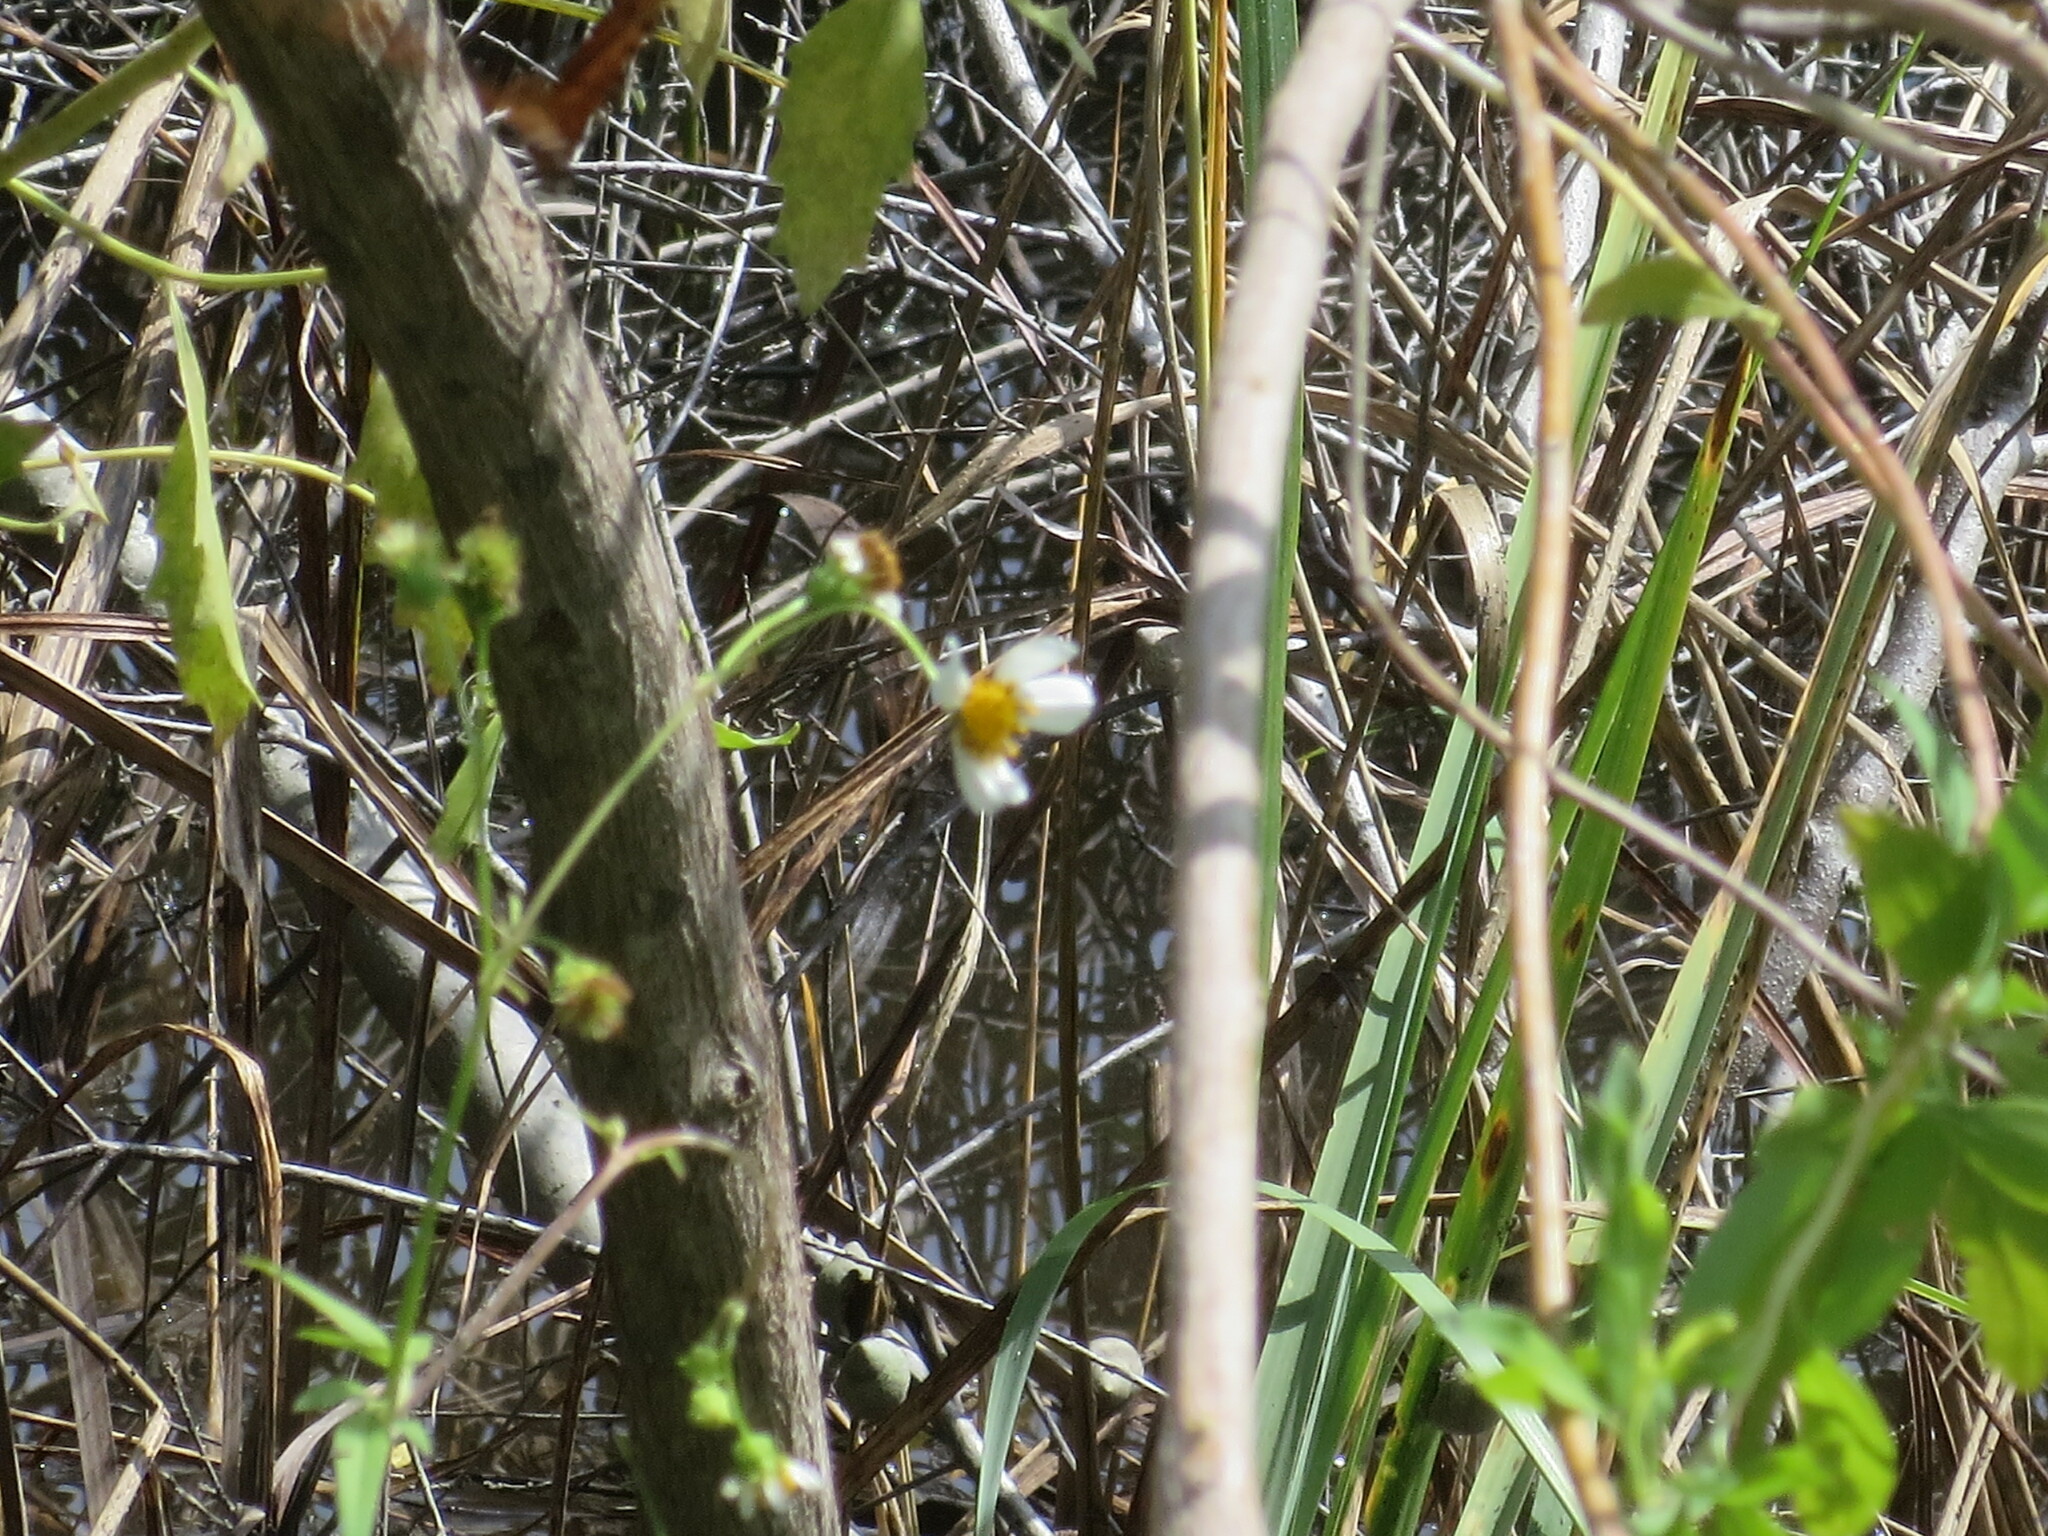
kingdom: Plantae
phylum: Tracheophyta
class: Magnoliopsida
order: Asterales
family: Asteraceae
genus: Bidens
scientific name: Bidens alba
